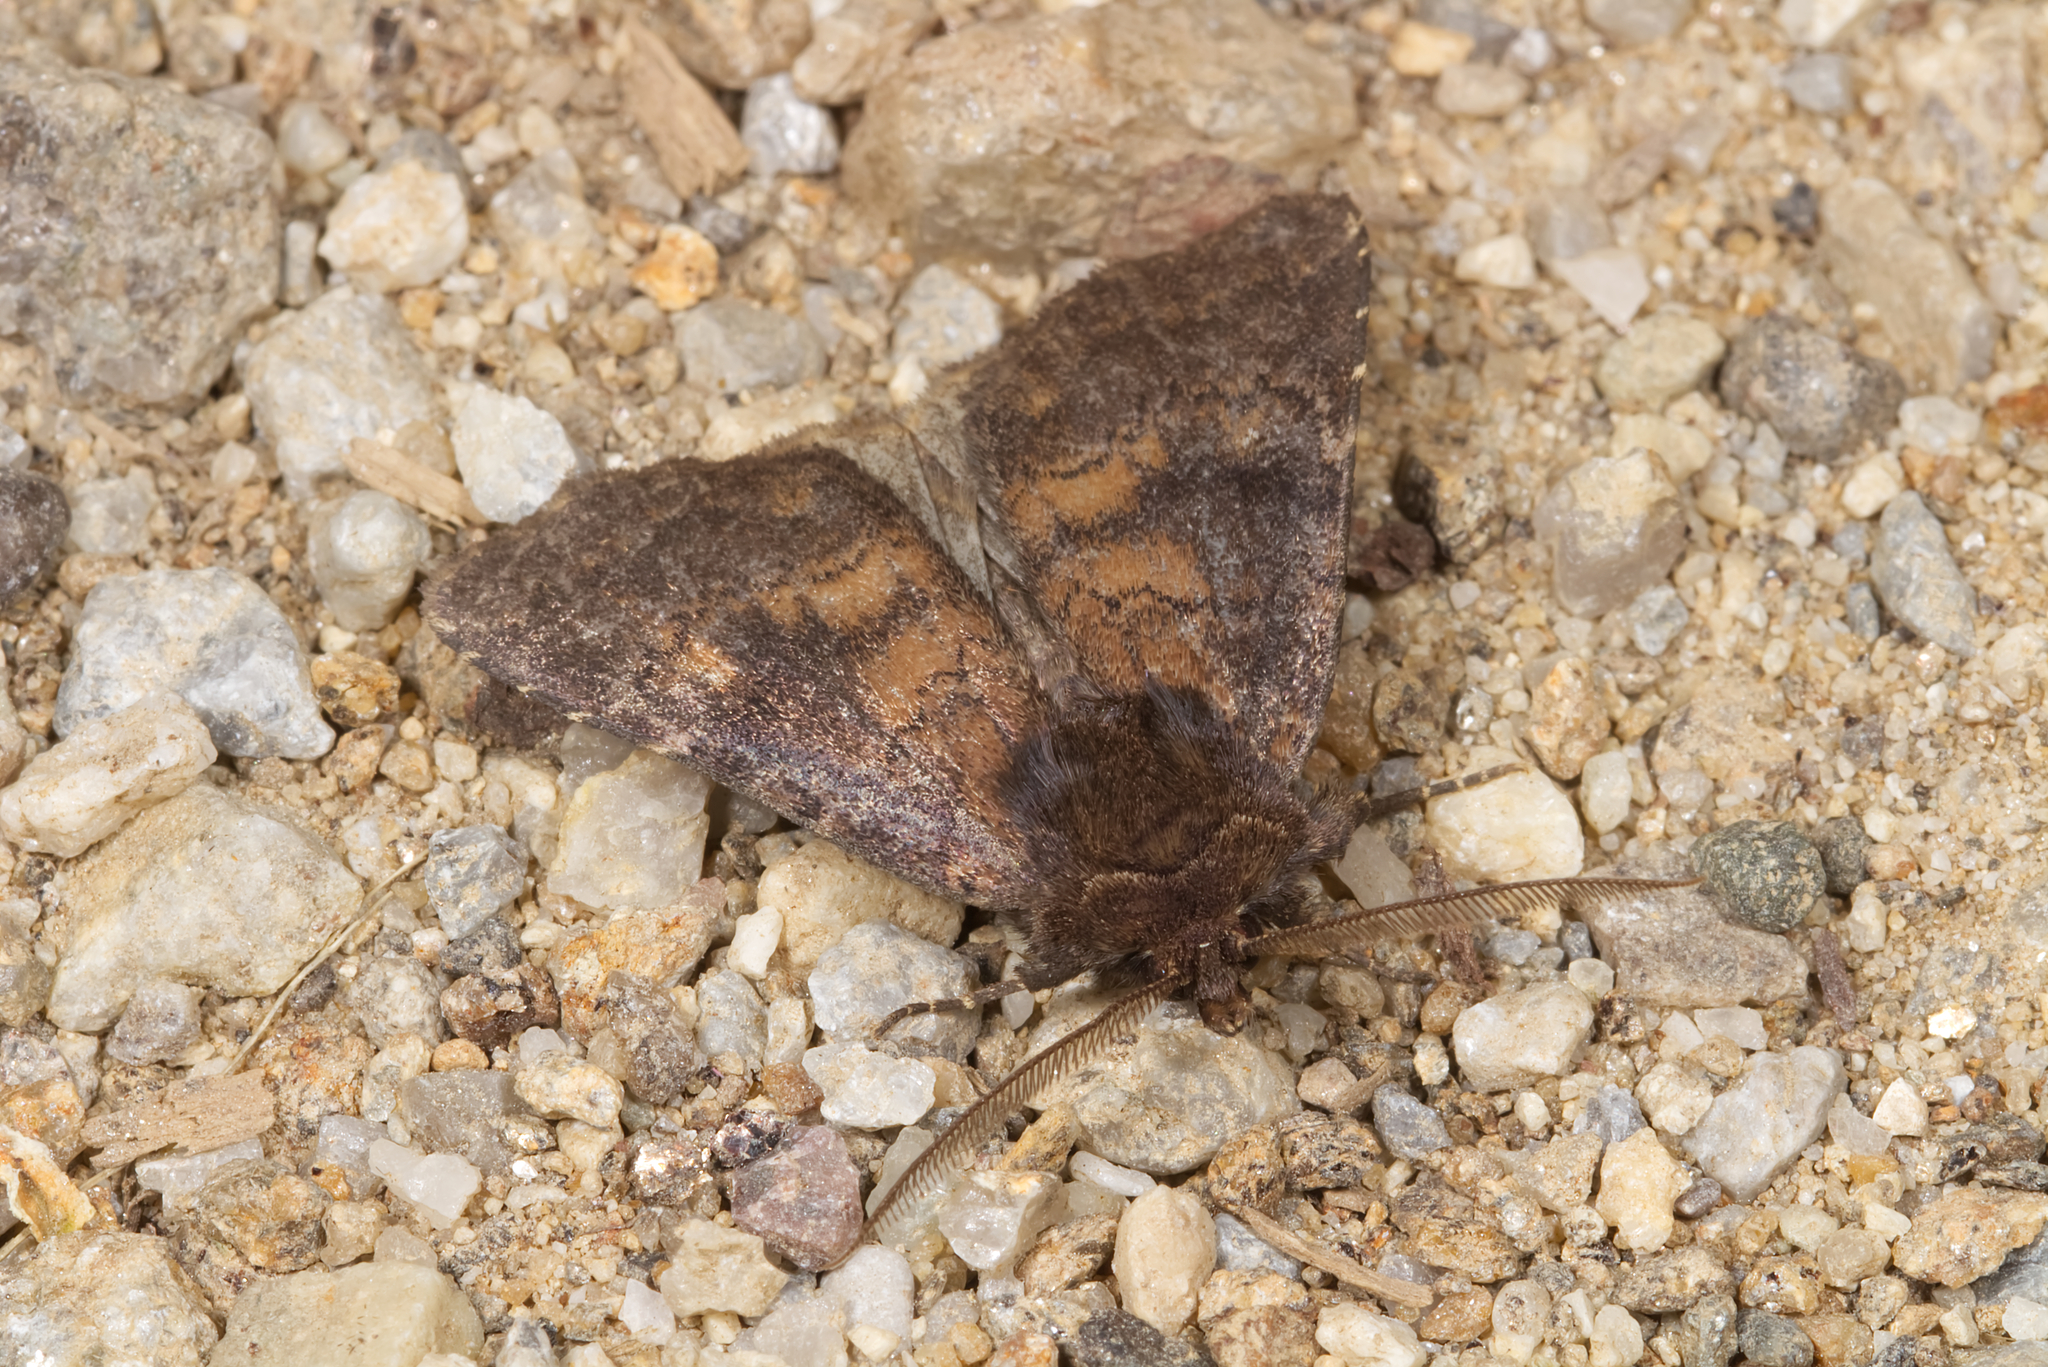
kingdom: Animalia
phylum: Arthropoda
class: Insecta
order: Lepidoptera
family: Noctuidae
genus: Charanyca
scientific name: Charanyca ferruginea
